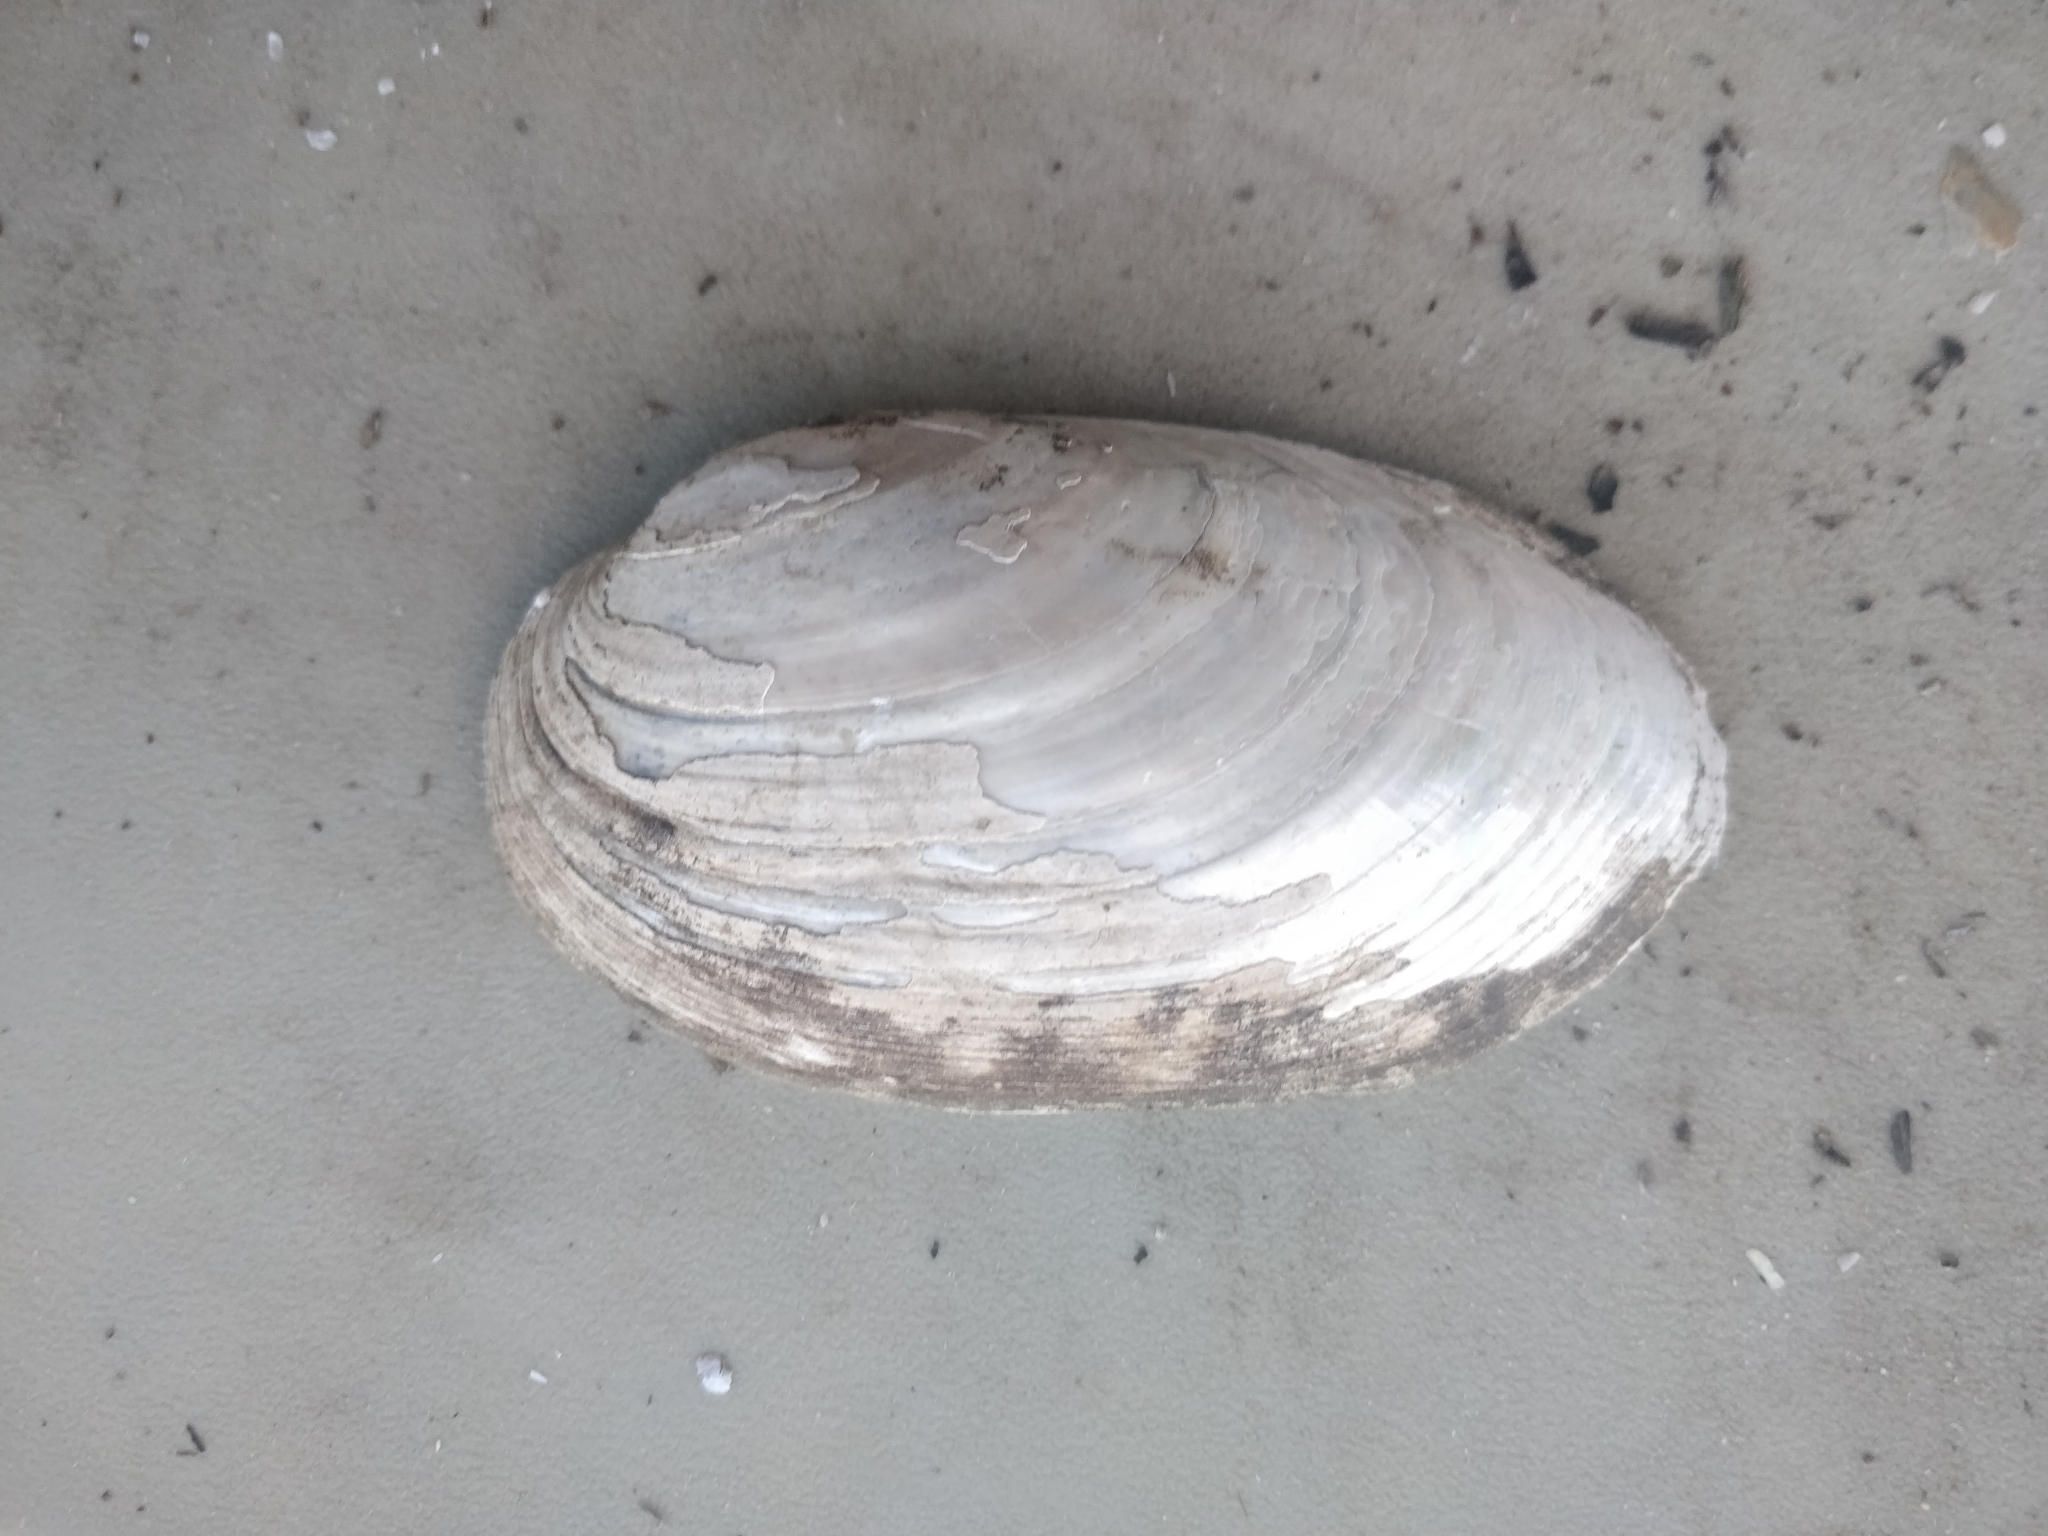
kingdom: Animalia
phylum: Mollusca
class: Bivalvia
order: Unionida
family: Unionidae
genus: Lampsilis
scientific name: Lampsilis siliquoidea
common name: Fatmucket
